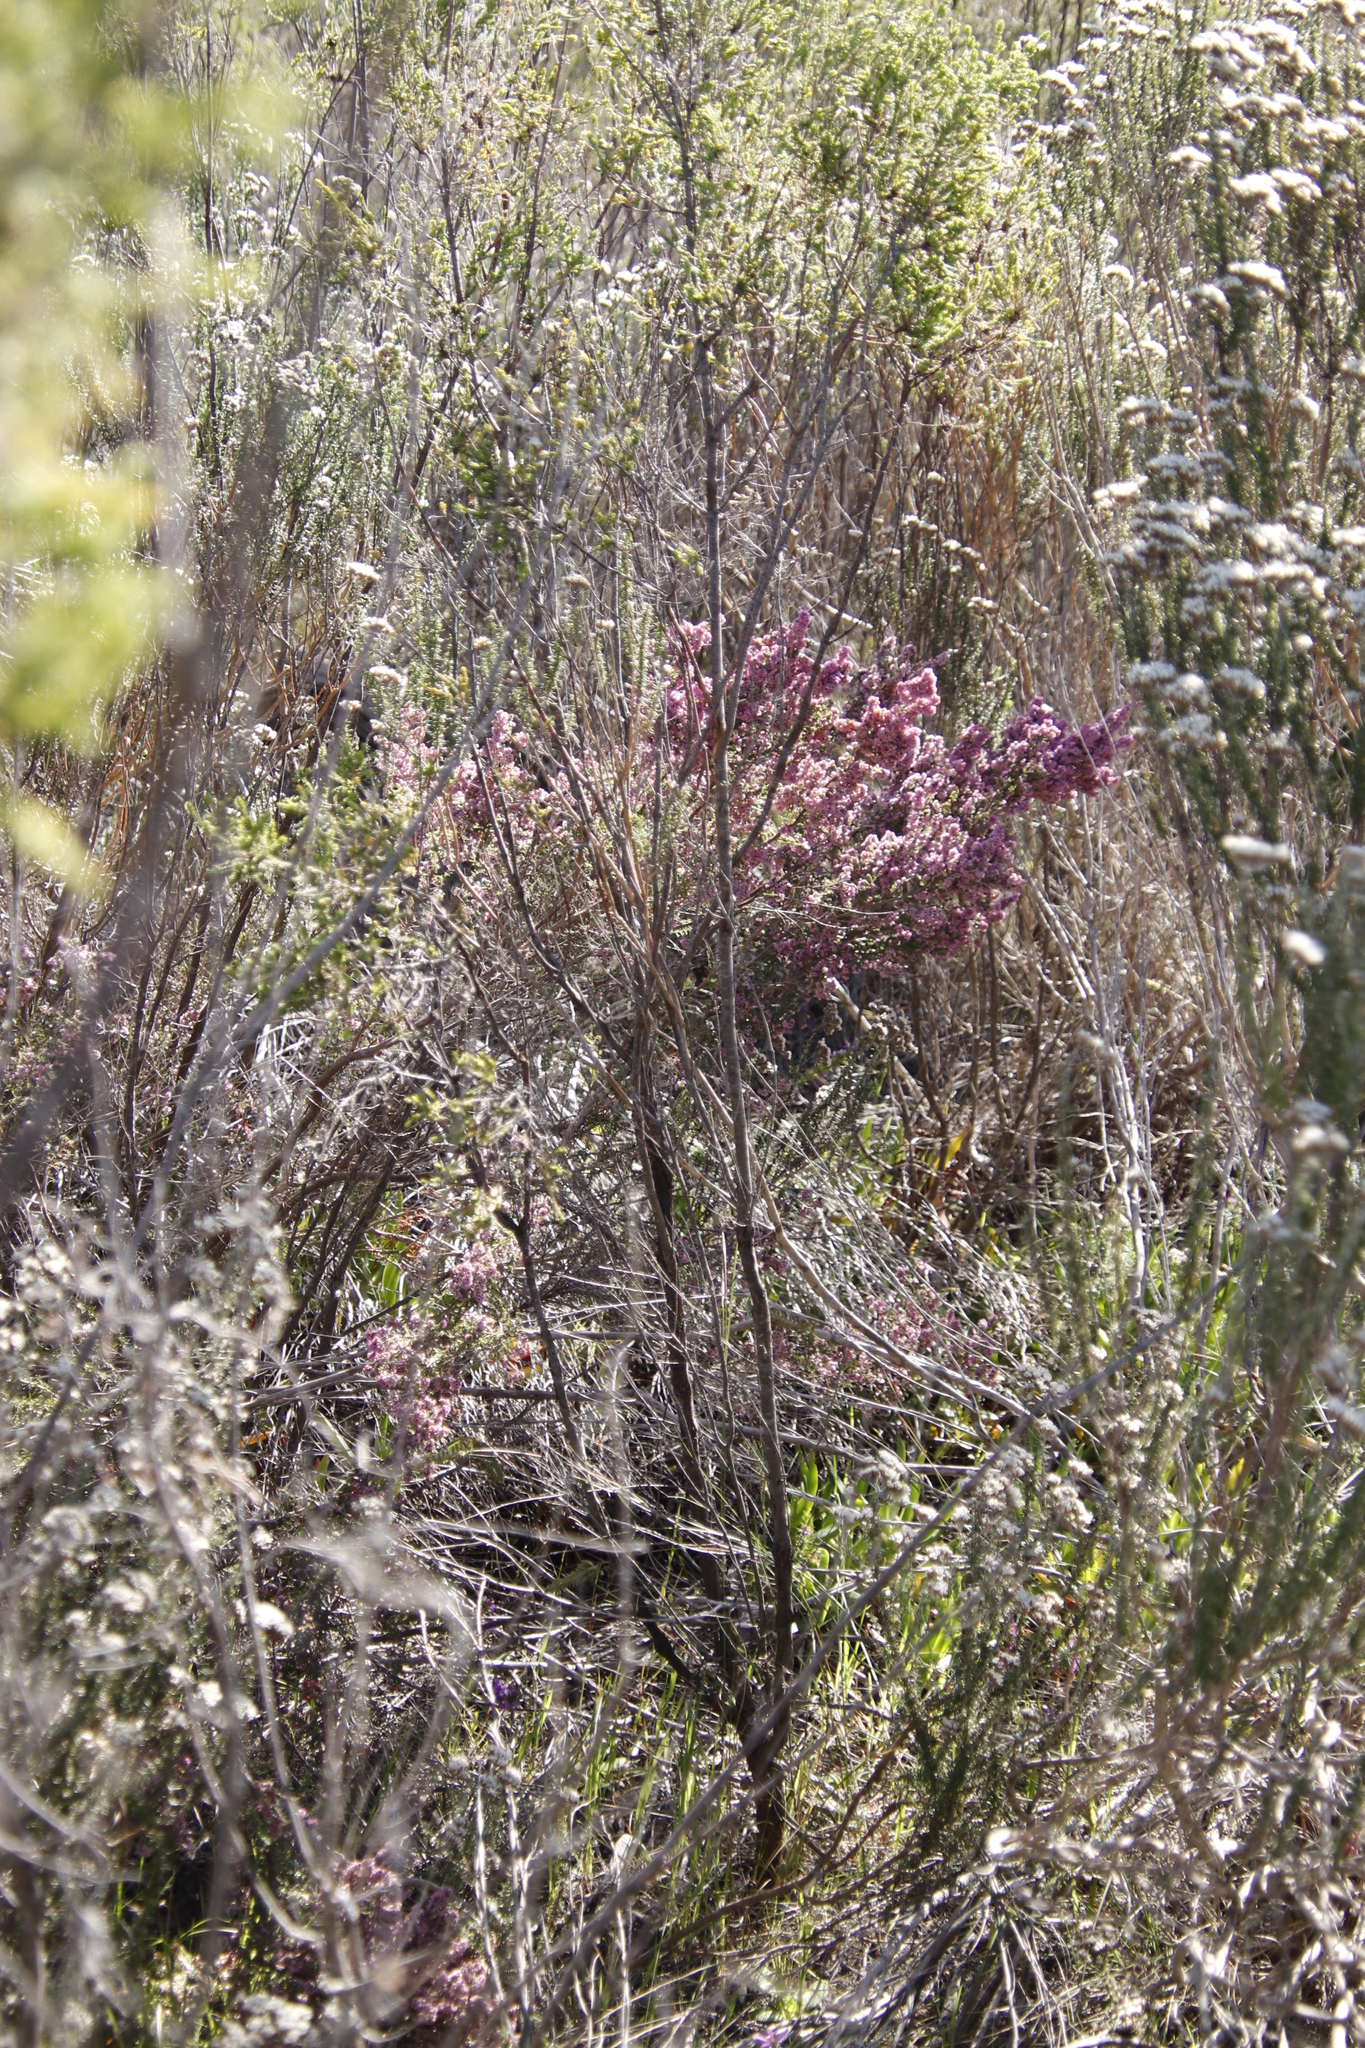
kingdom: Plantae
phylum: Tracheophyta
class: Magnoliopsida
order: Ericales
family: Ericaceae
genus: Erica
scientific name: Erica mauritanica
